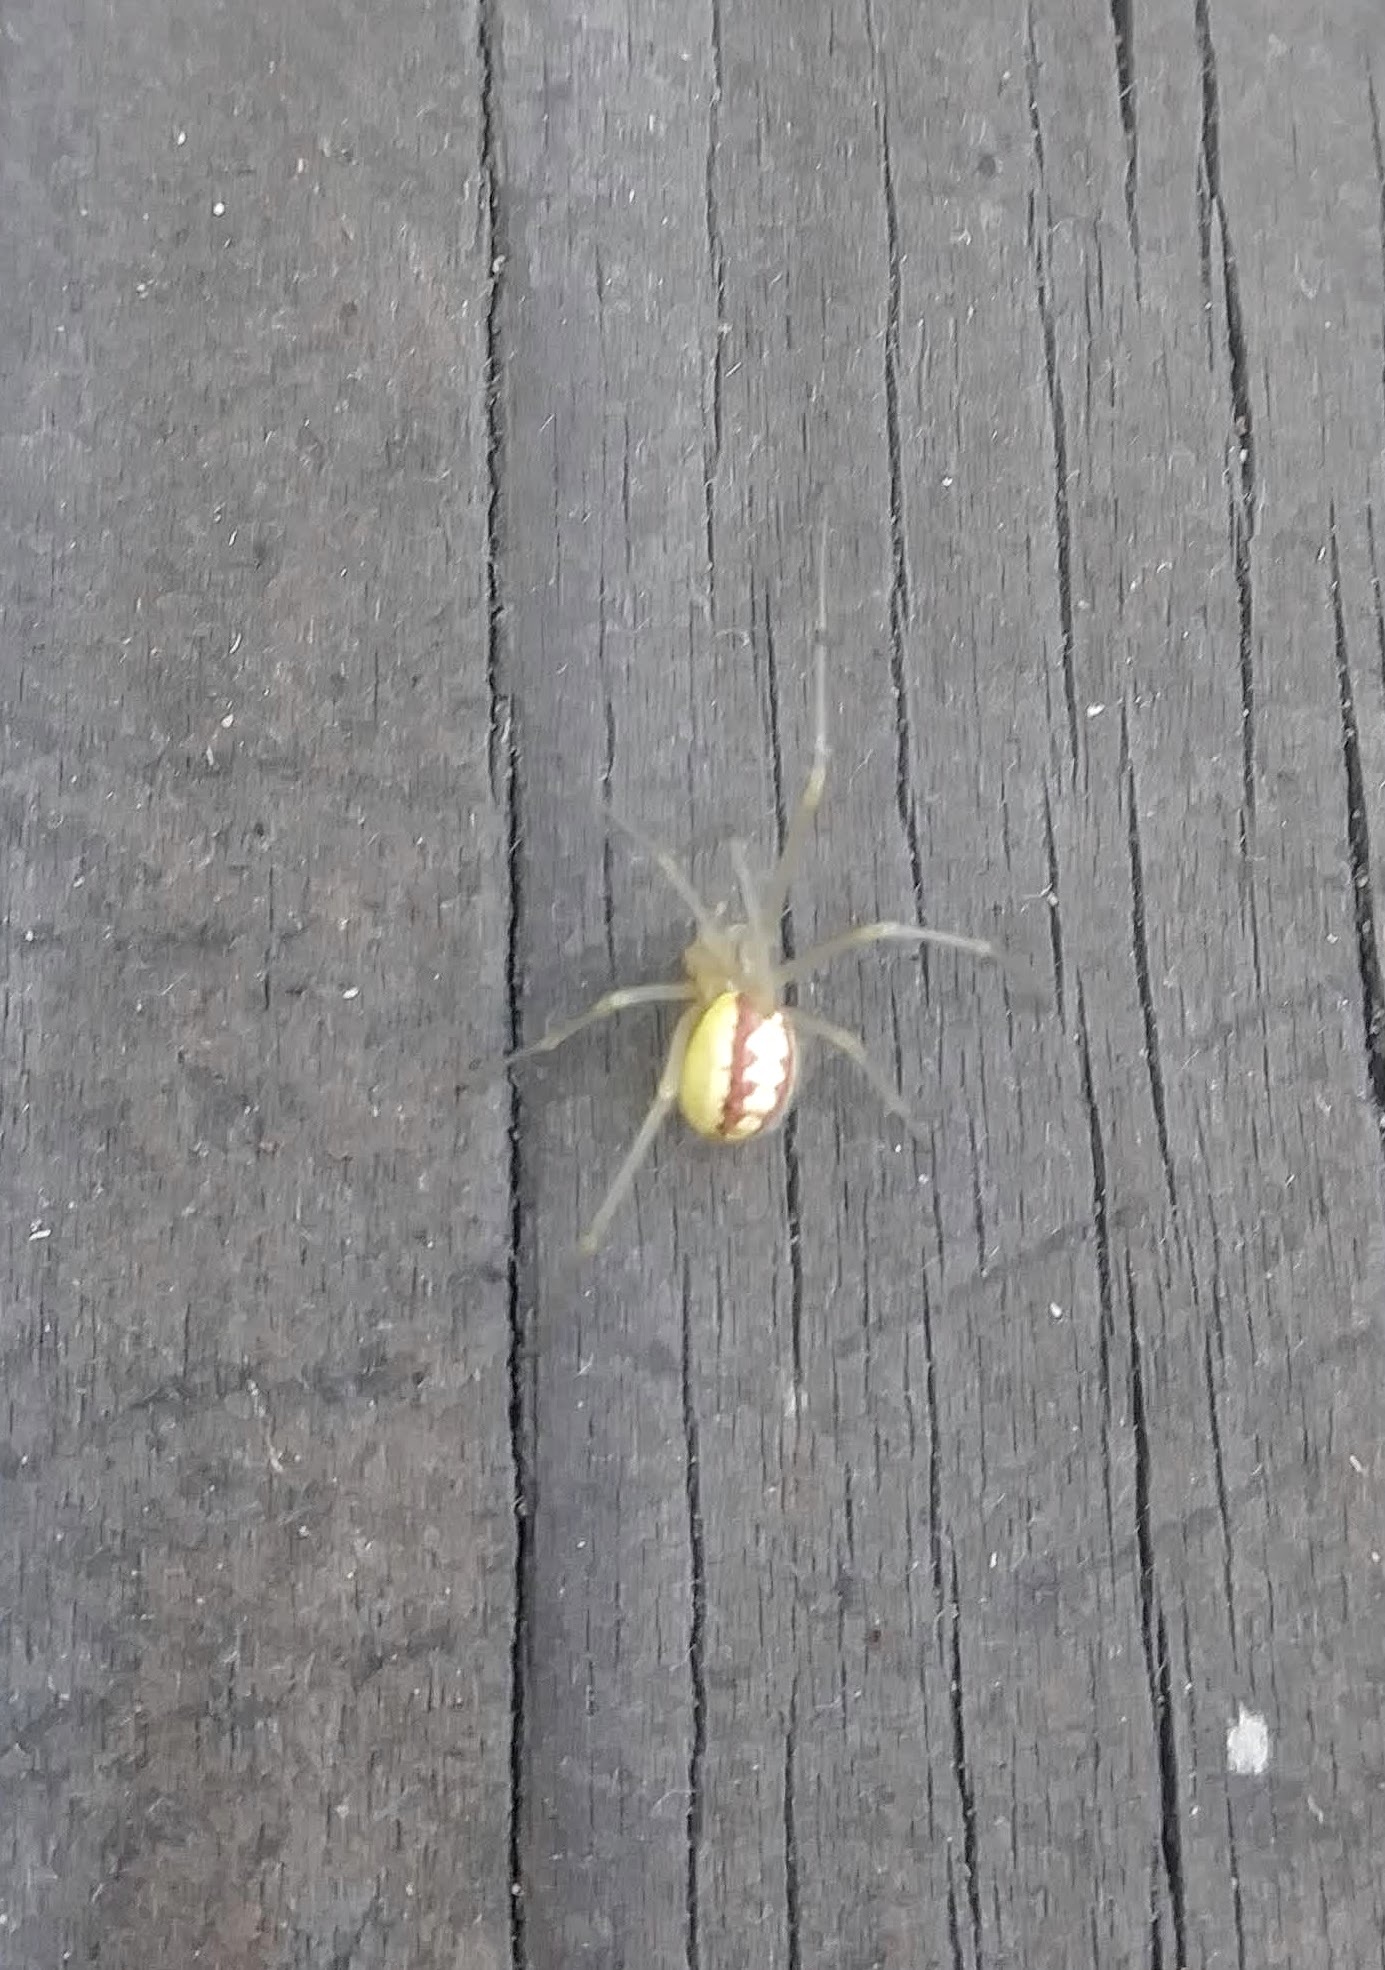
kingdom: Animalia
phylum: Arthropoda
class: Arachnida
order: Araneae
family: Theridiidae
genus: Enoplognatha
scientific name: Enoplognatha ovata
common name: Common candy-striped spider
